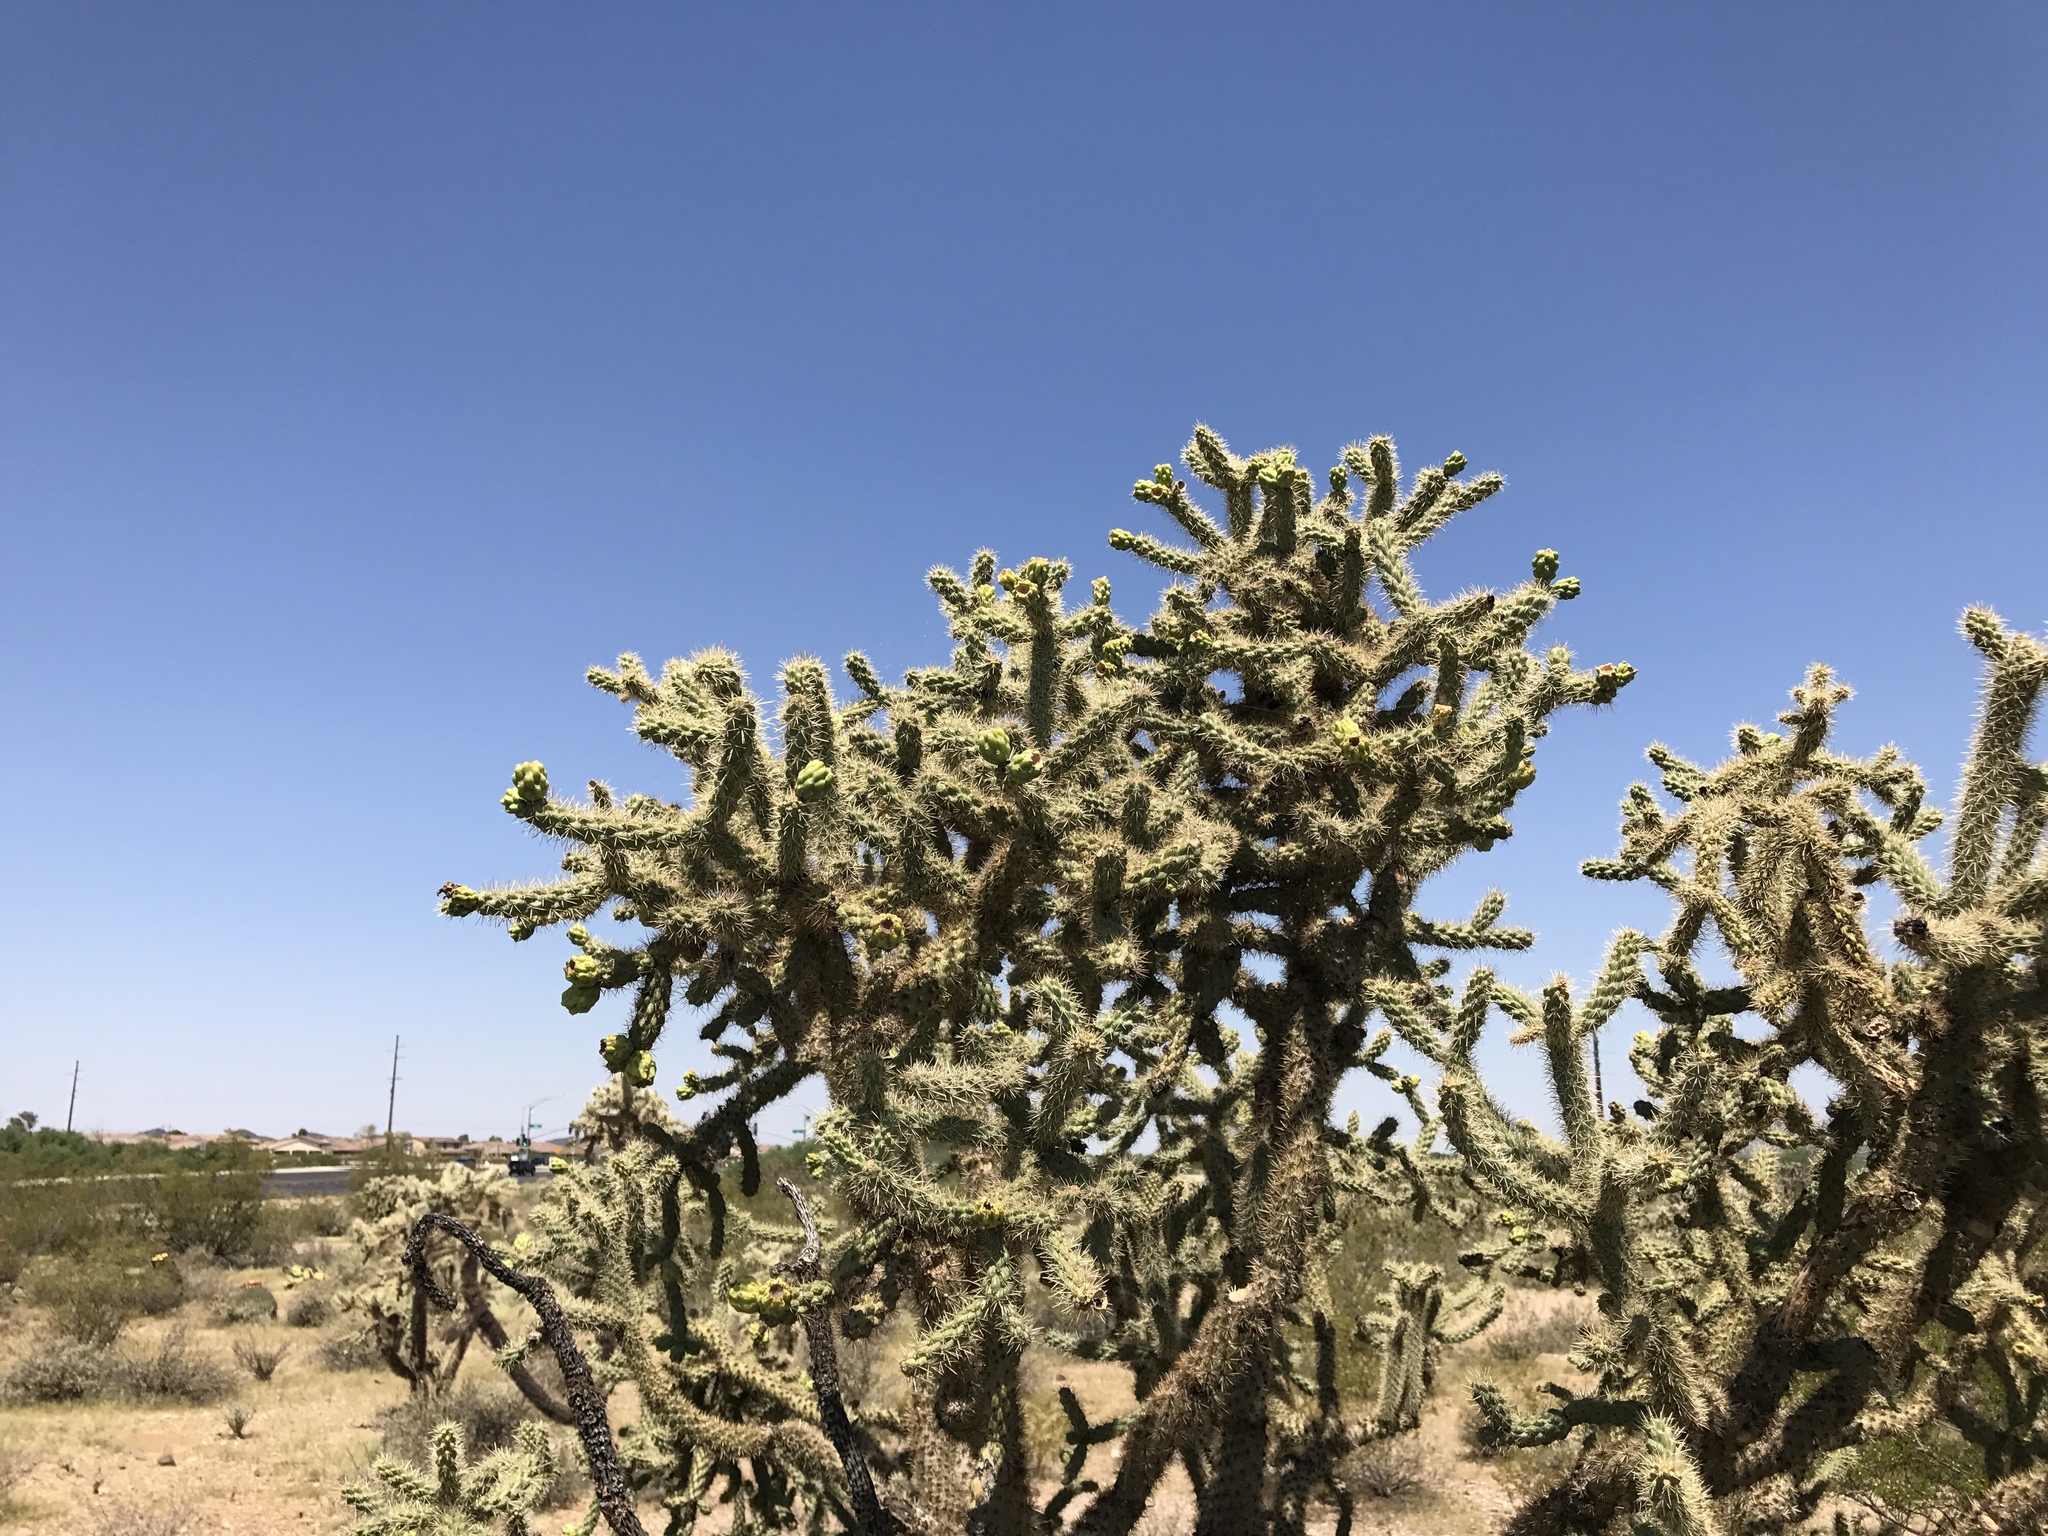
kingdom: Plantae
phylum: Tracheophyta
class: Magnoliopsida
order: Caryophyllales
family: Cactaceae
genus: Cylindropuntia
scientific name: Cylindropuntia imbricata
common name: Candelabrum cactus
